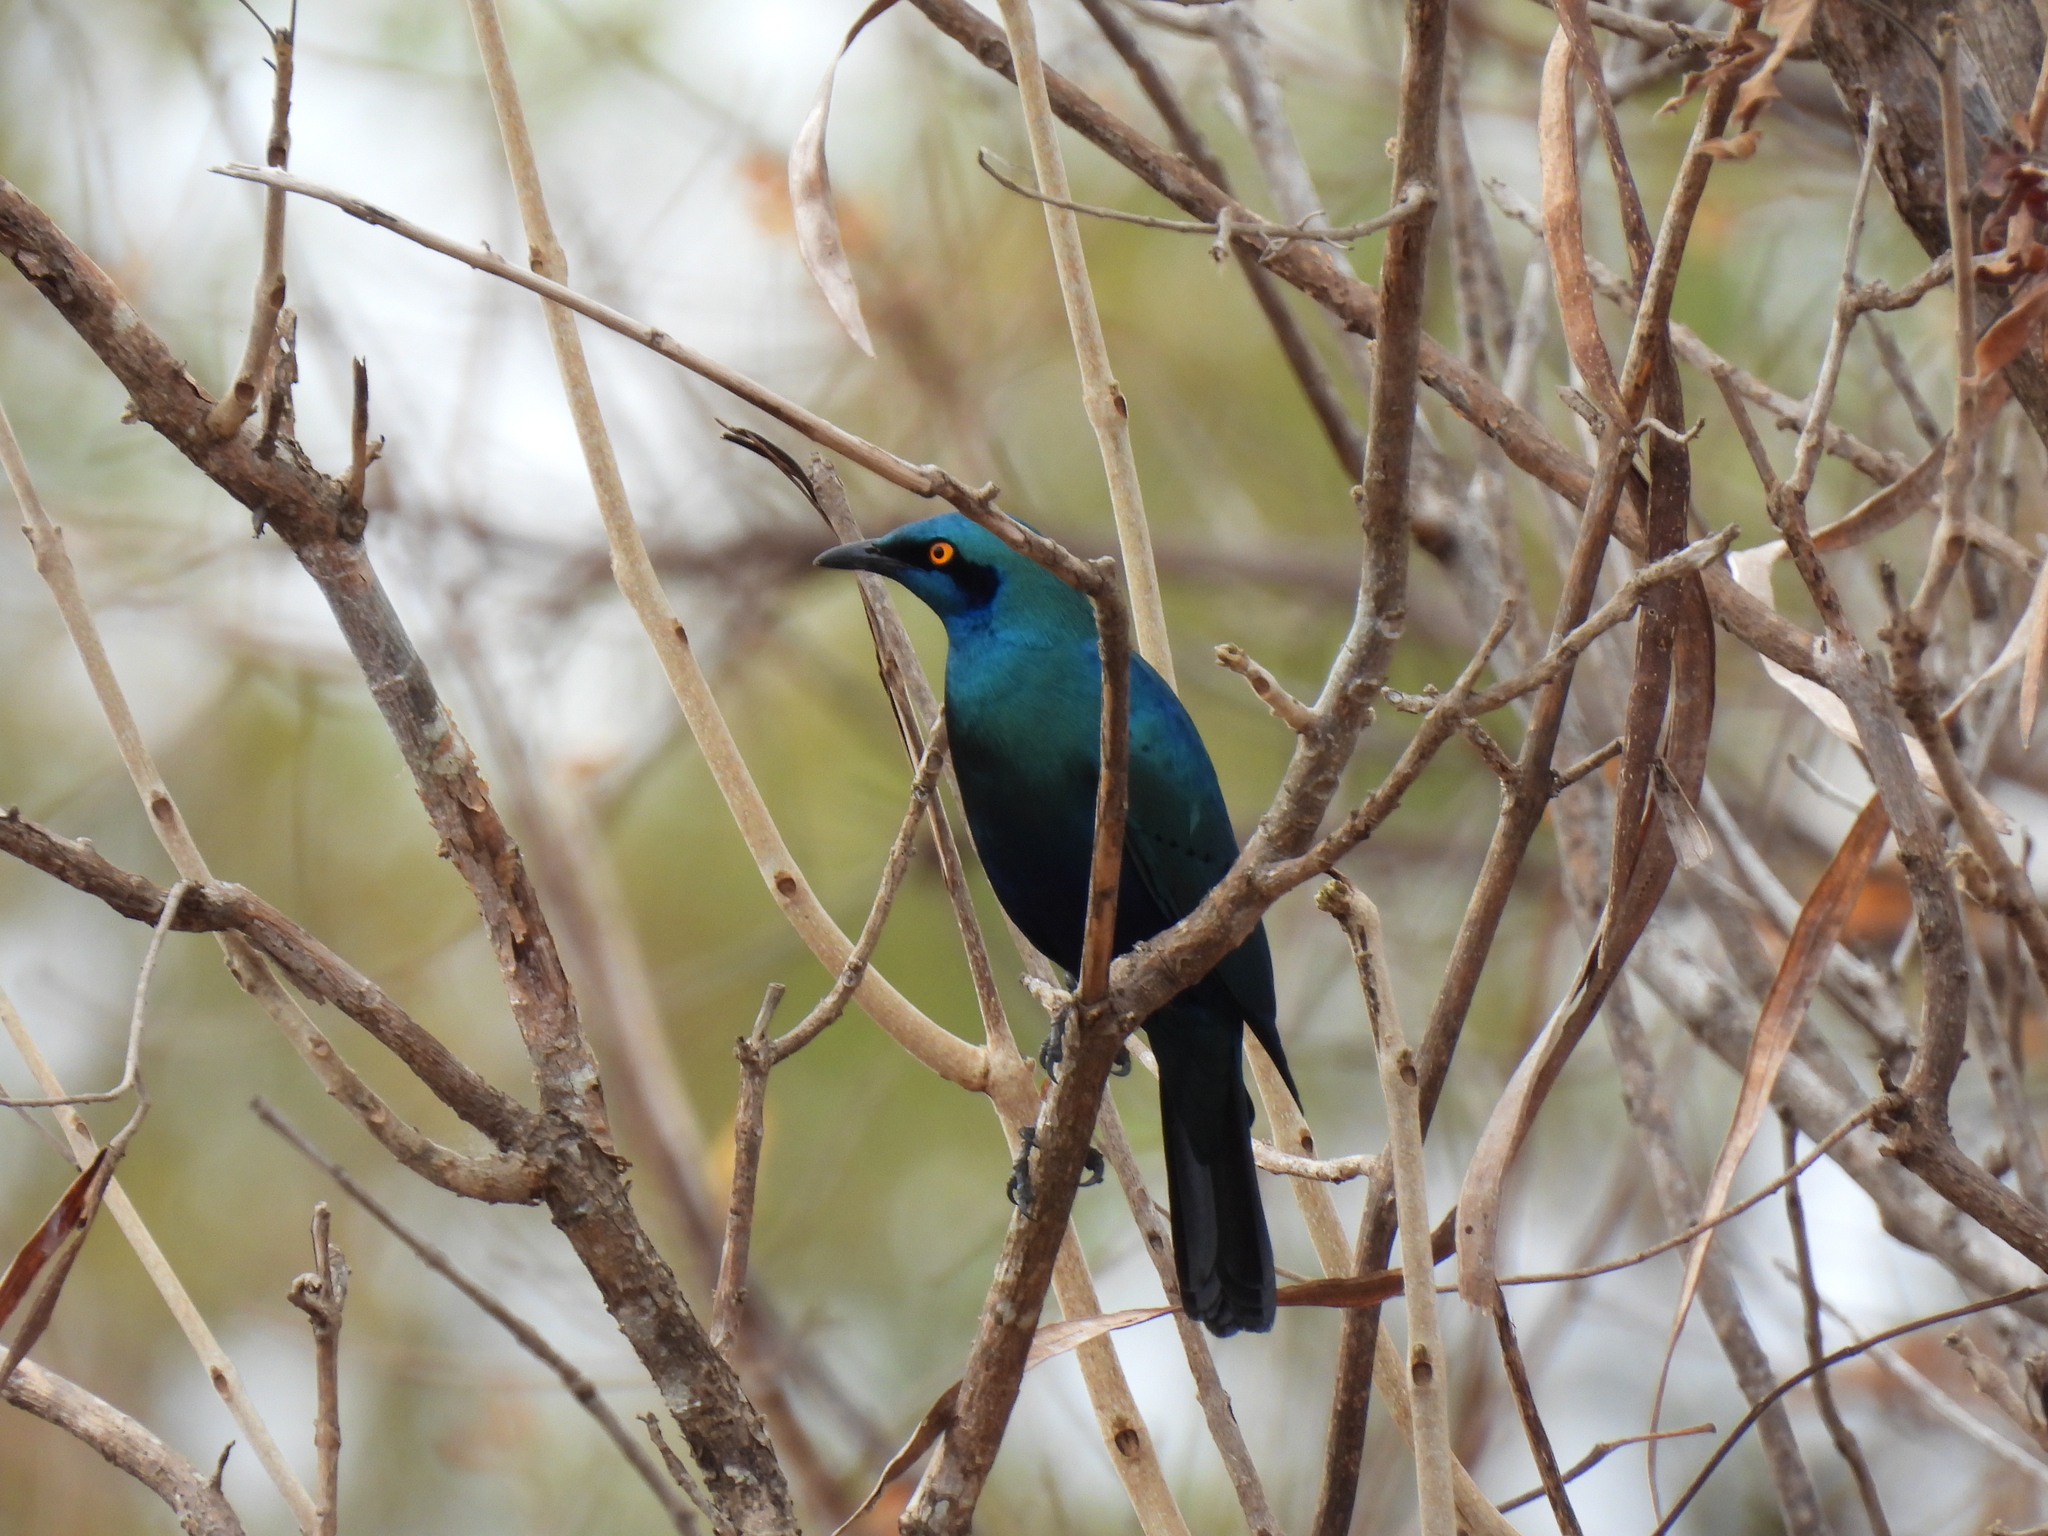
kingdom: Animalia
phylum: Chordata
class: Aves
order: Passeriformes
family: Sturnidae
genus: Lamprotornis
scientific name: Lamprotornis chalybaeus
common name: Greater blue-eared starling
